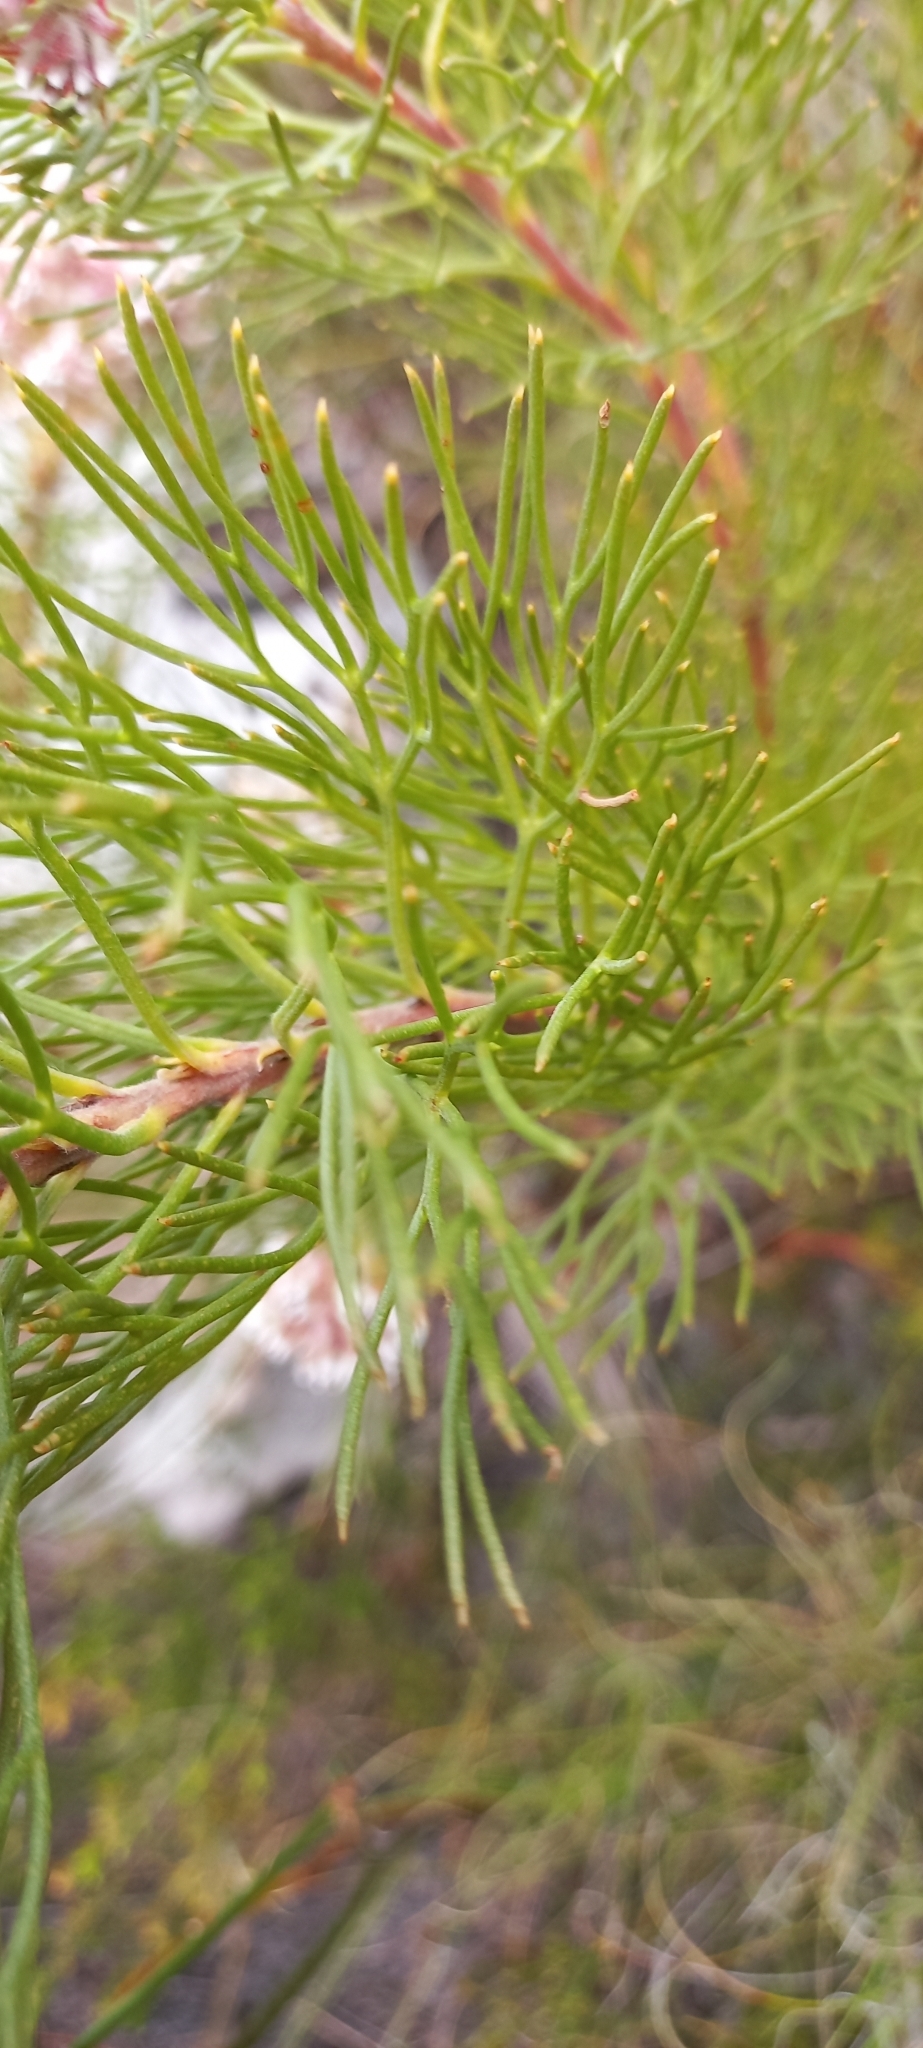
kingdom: Plantae
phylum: Tracheophyta
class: Magnoliopsida
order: Proteales
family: Proteaceae
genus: Serruria
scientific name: Serruria ascendens
